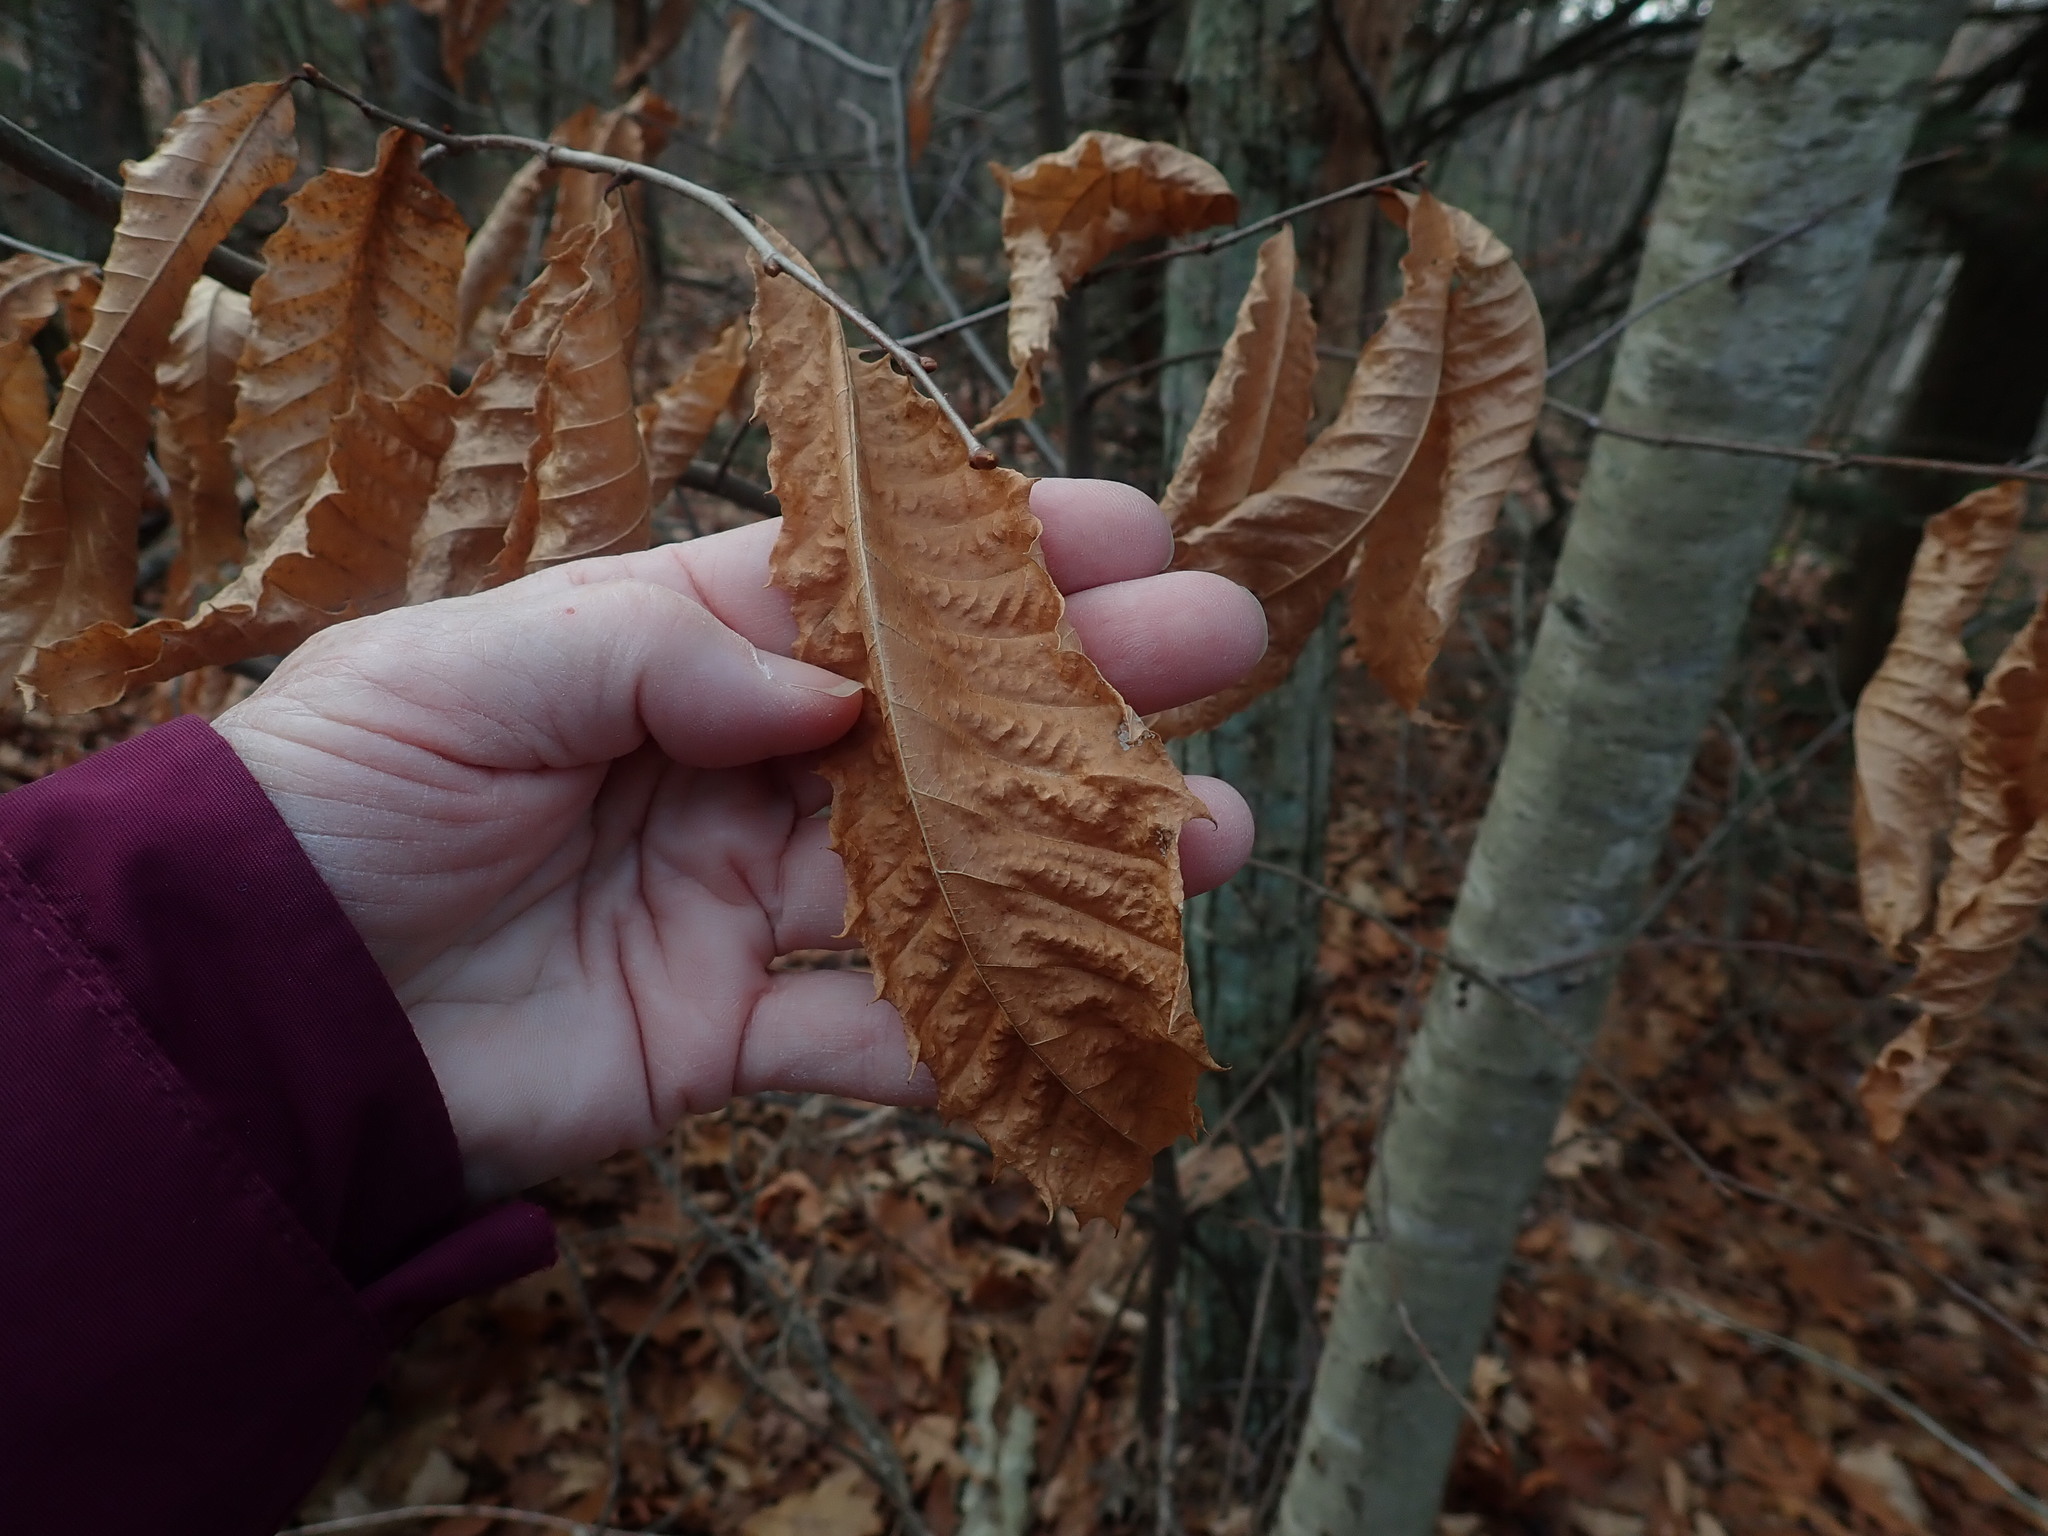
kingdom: Plantae
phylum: Tracheophyta
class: Magnoliopsida
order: Fagales
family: Fagaceae
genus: Castanea
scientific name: Castanea dentata
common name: American chestnut
